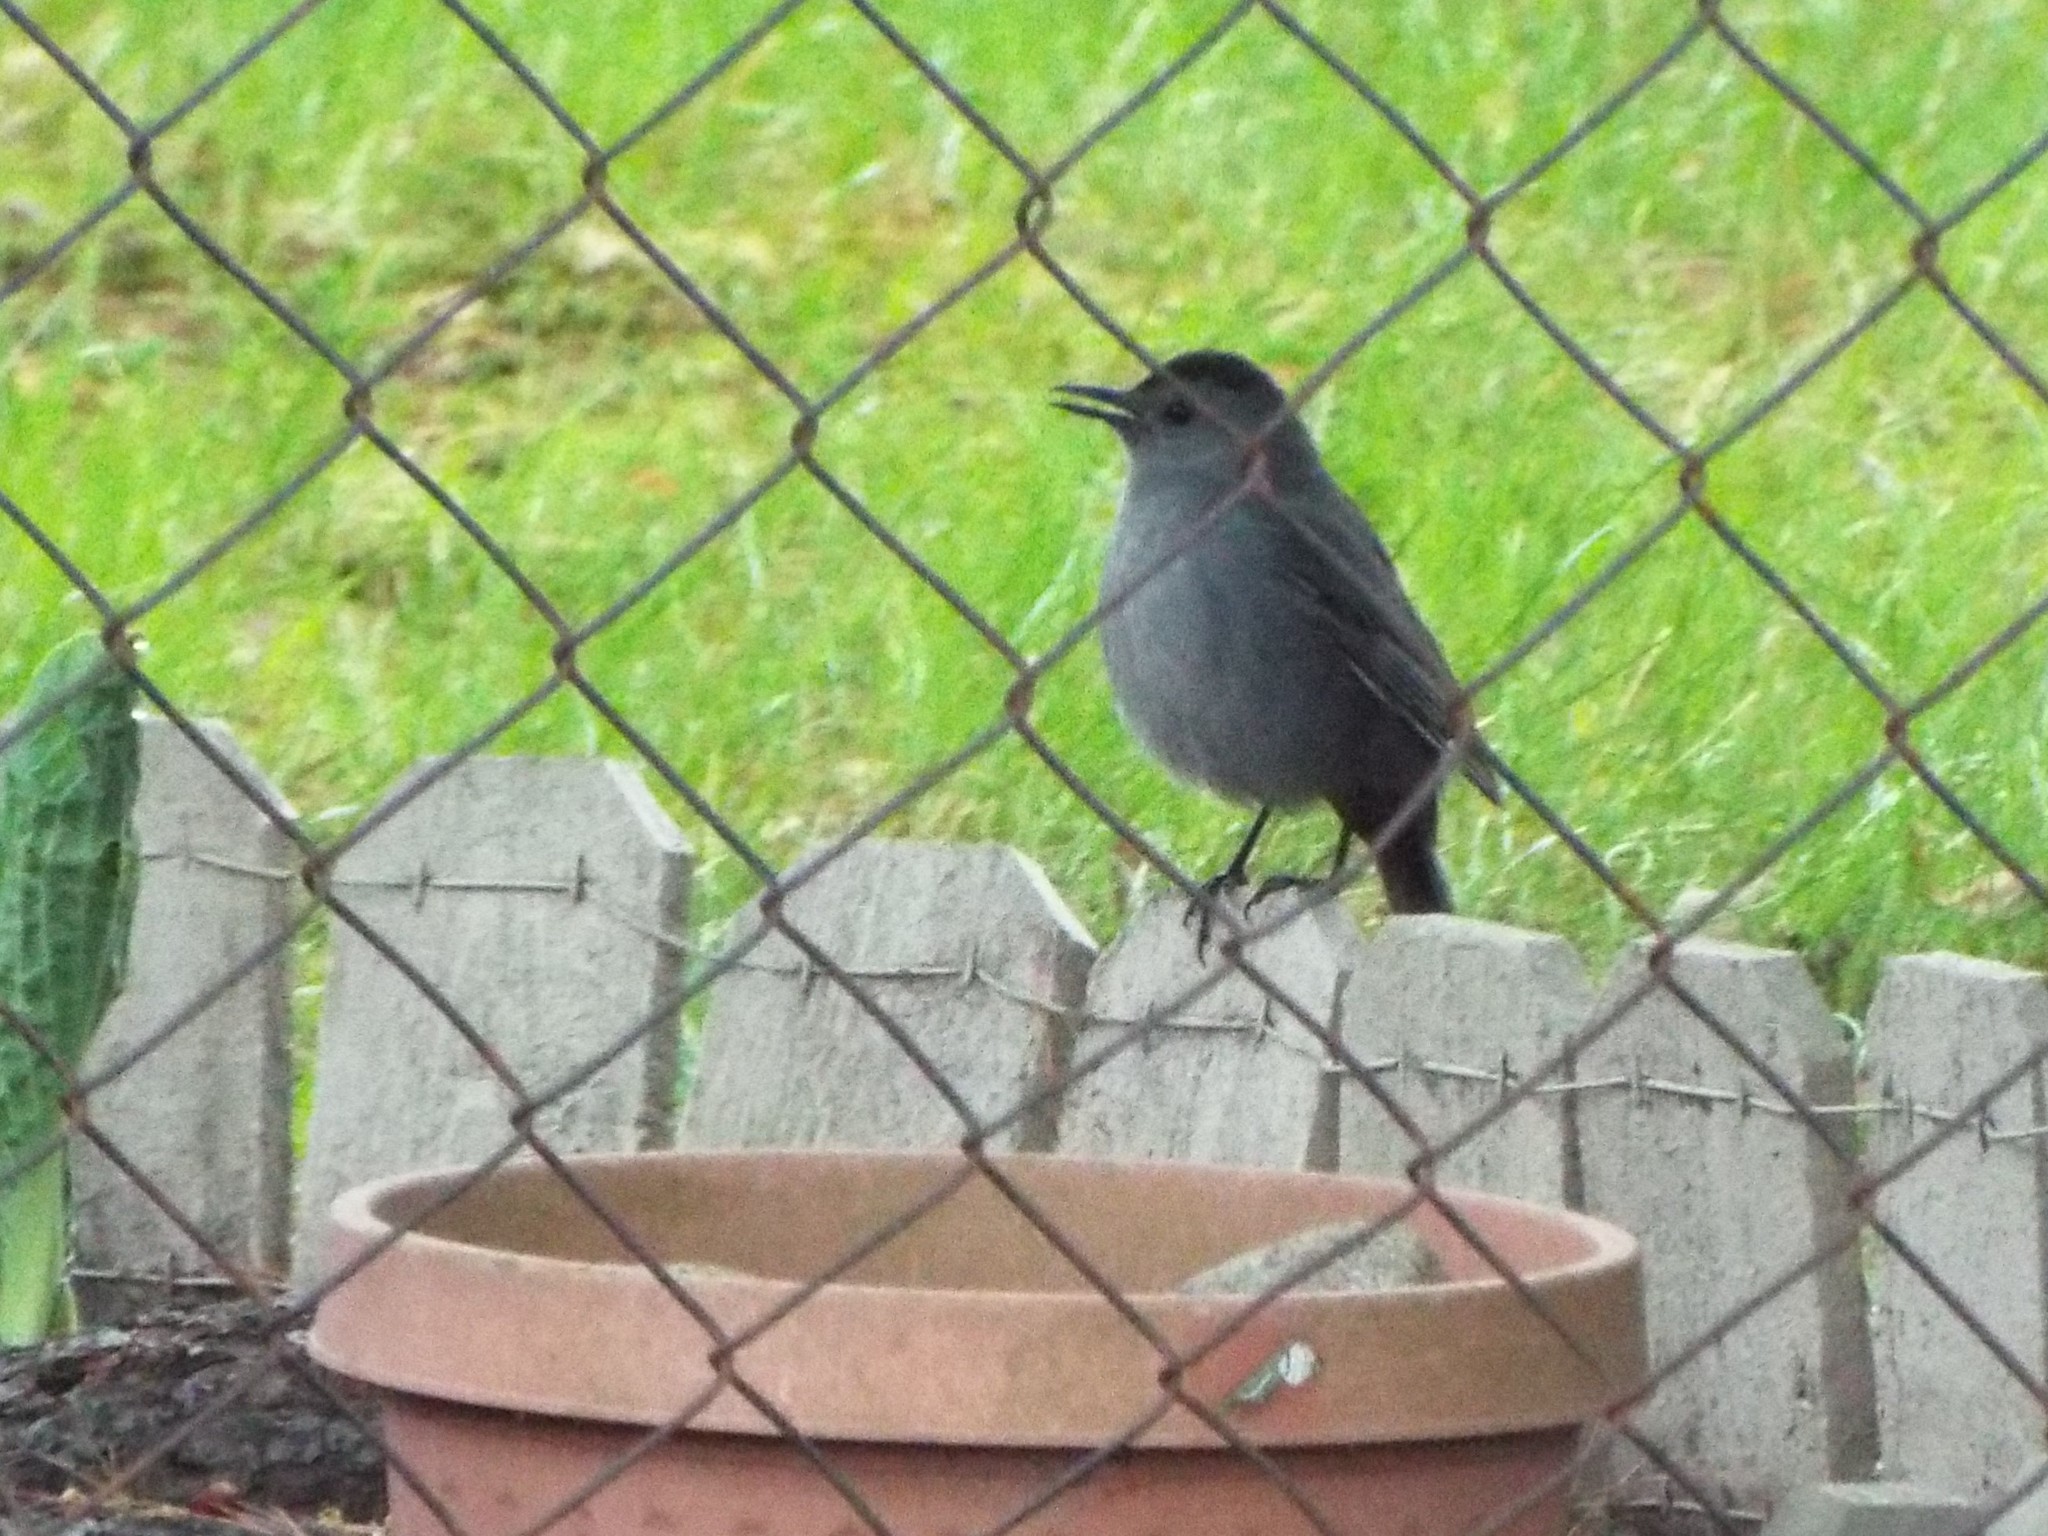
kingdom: Animalia
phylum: Chordata
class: Aves
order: Passeriformes
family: Mimidae
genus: Dumetella
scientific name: Dumetella carolinensis
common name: Gray catbird
